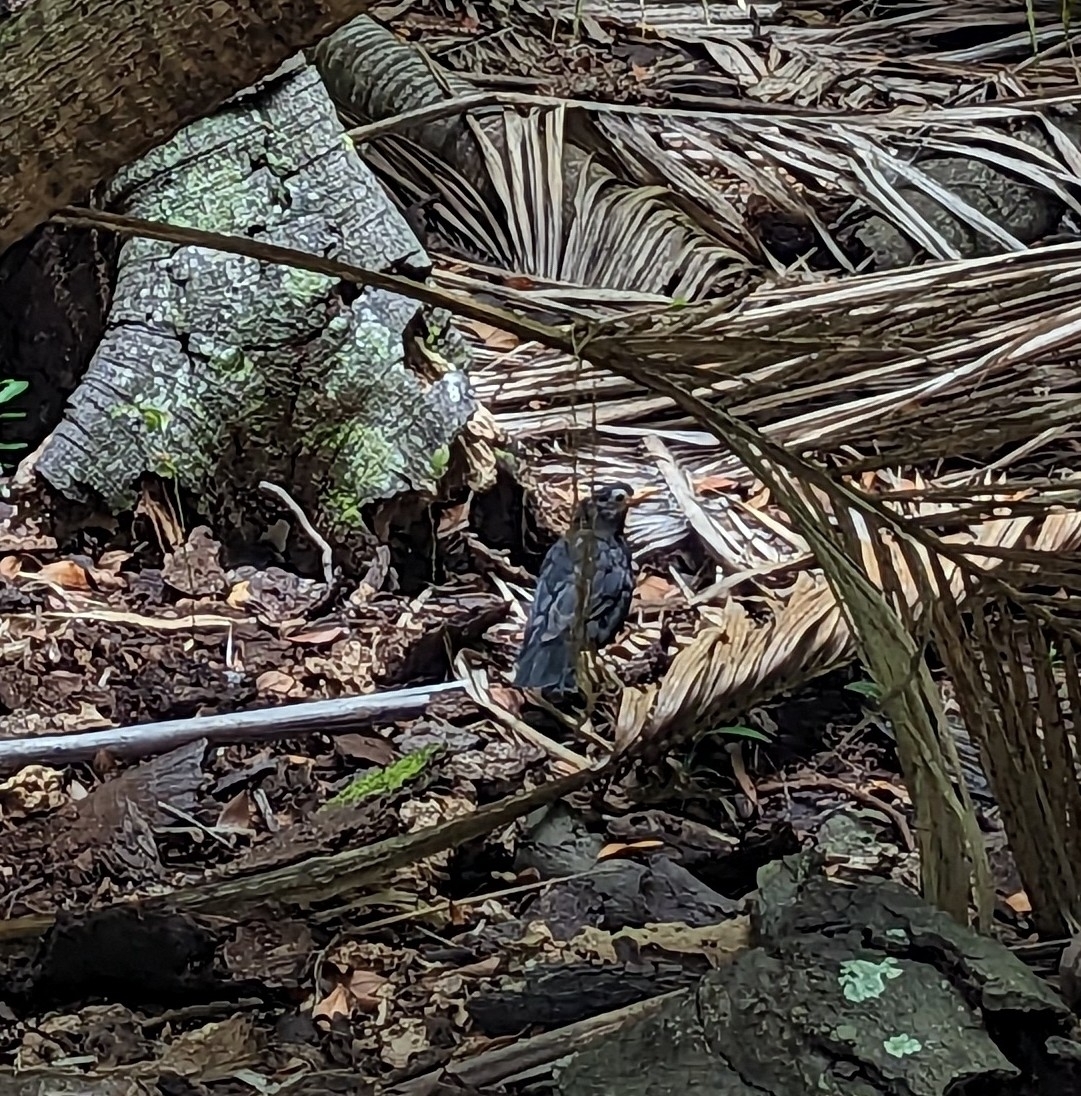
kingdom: Animalia
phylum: Chordata
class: Aves
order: Passeriformes
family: Turdidae
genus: Turdus
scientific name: Turdus merula
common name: Common blackbird
